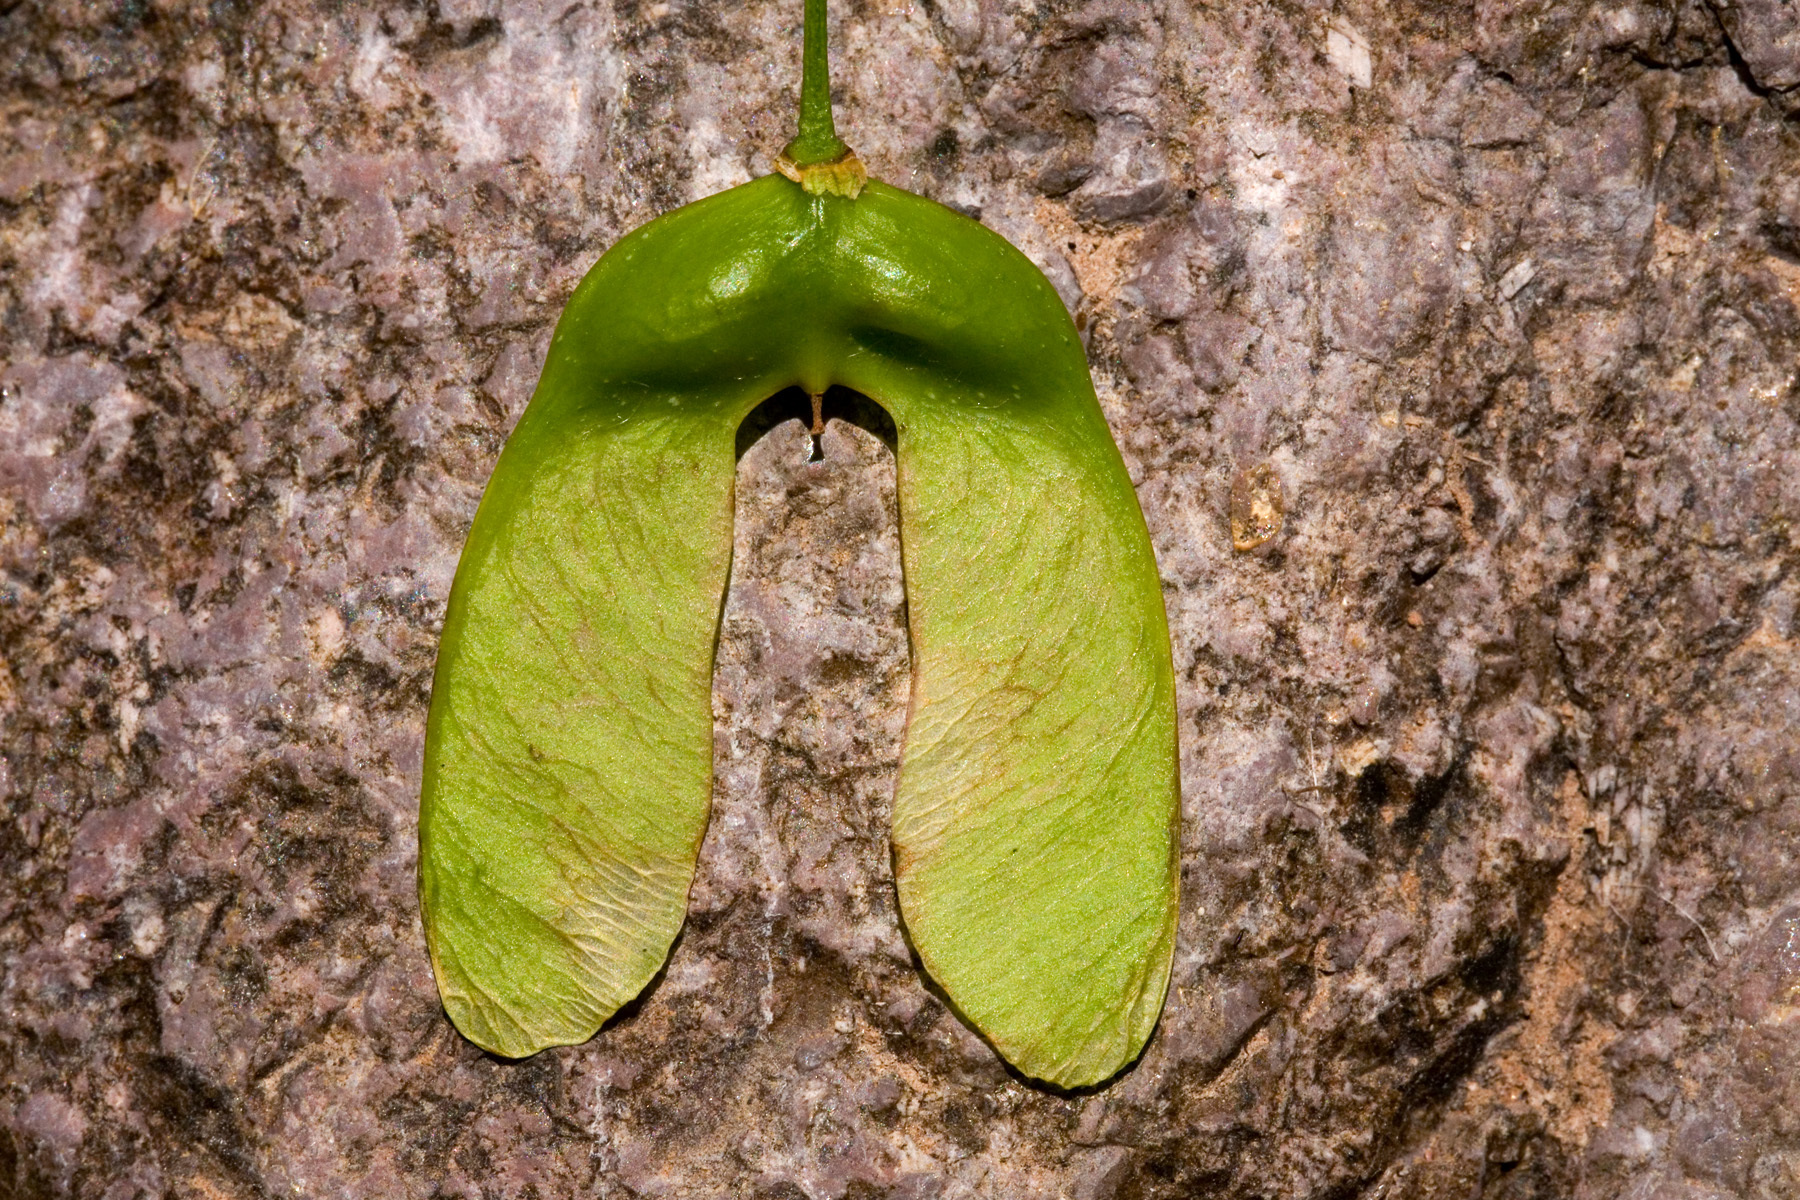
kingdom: Plantae
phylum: Tracheophyta
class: Magnoliopsida
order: Sapindales
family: Sapindaceae
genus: Acer
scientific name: Acer grandidentatum
